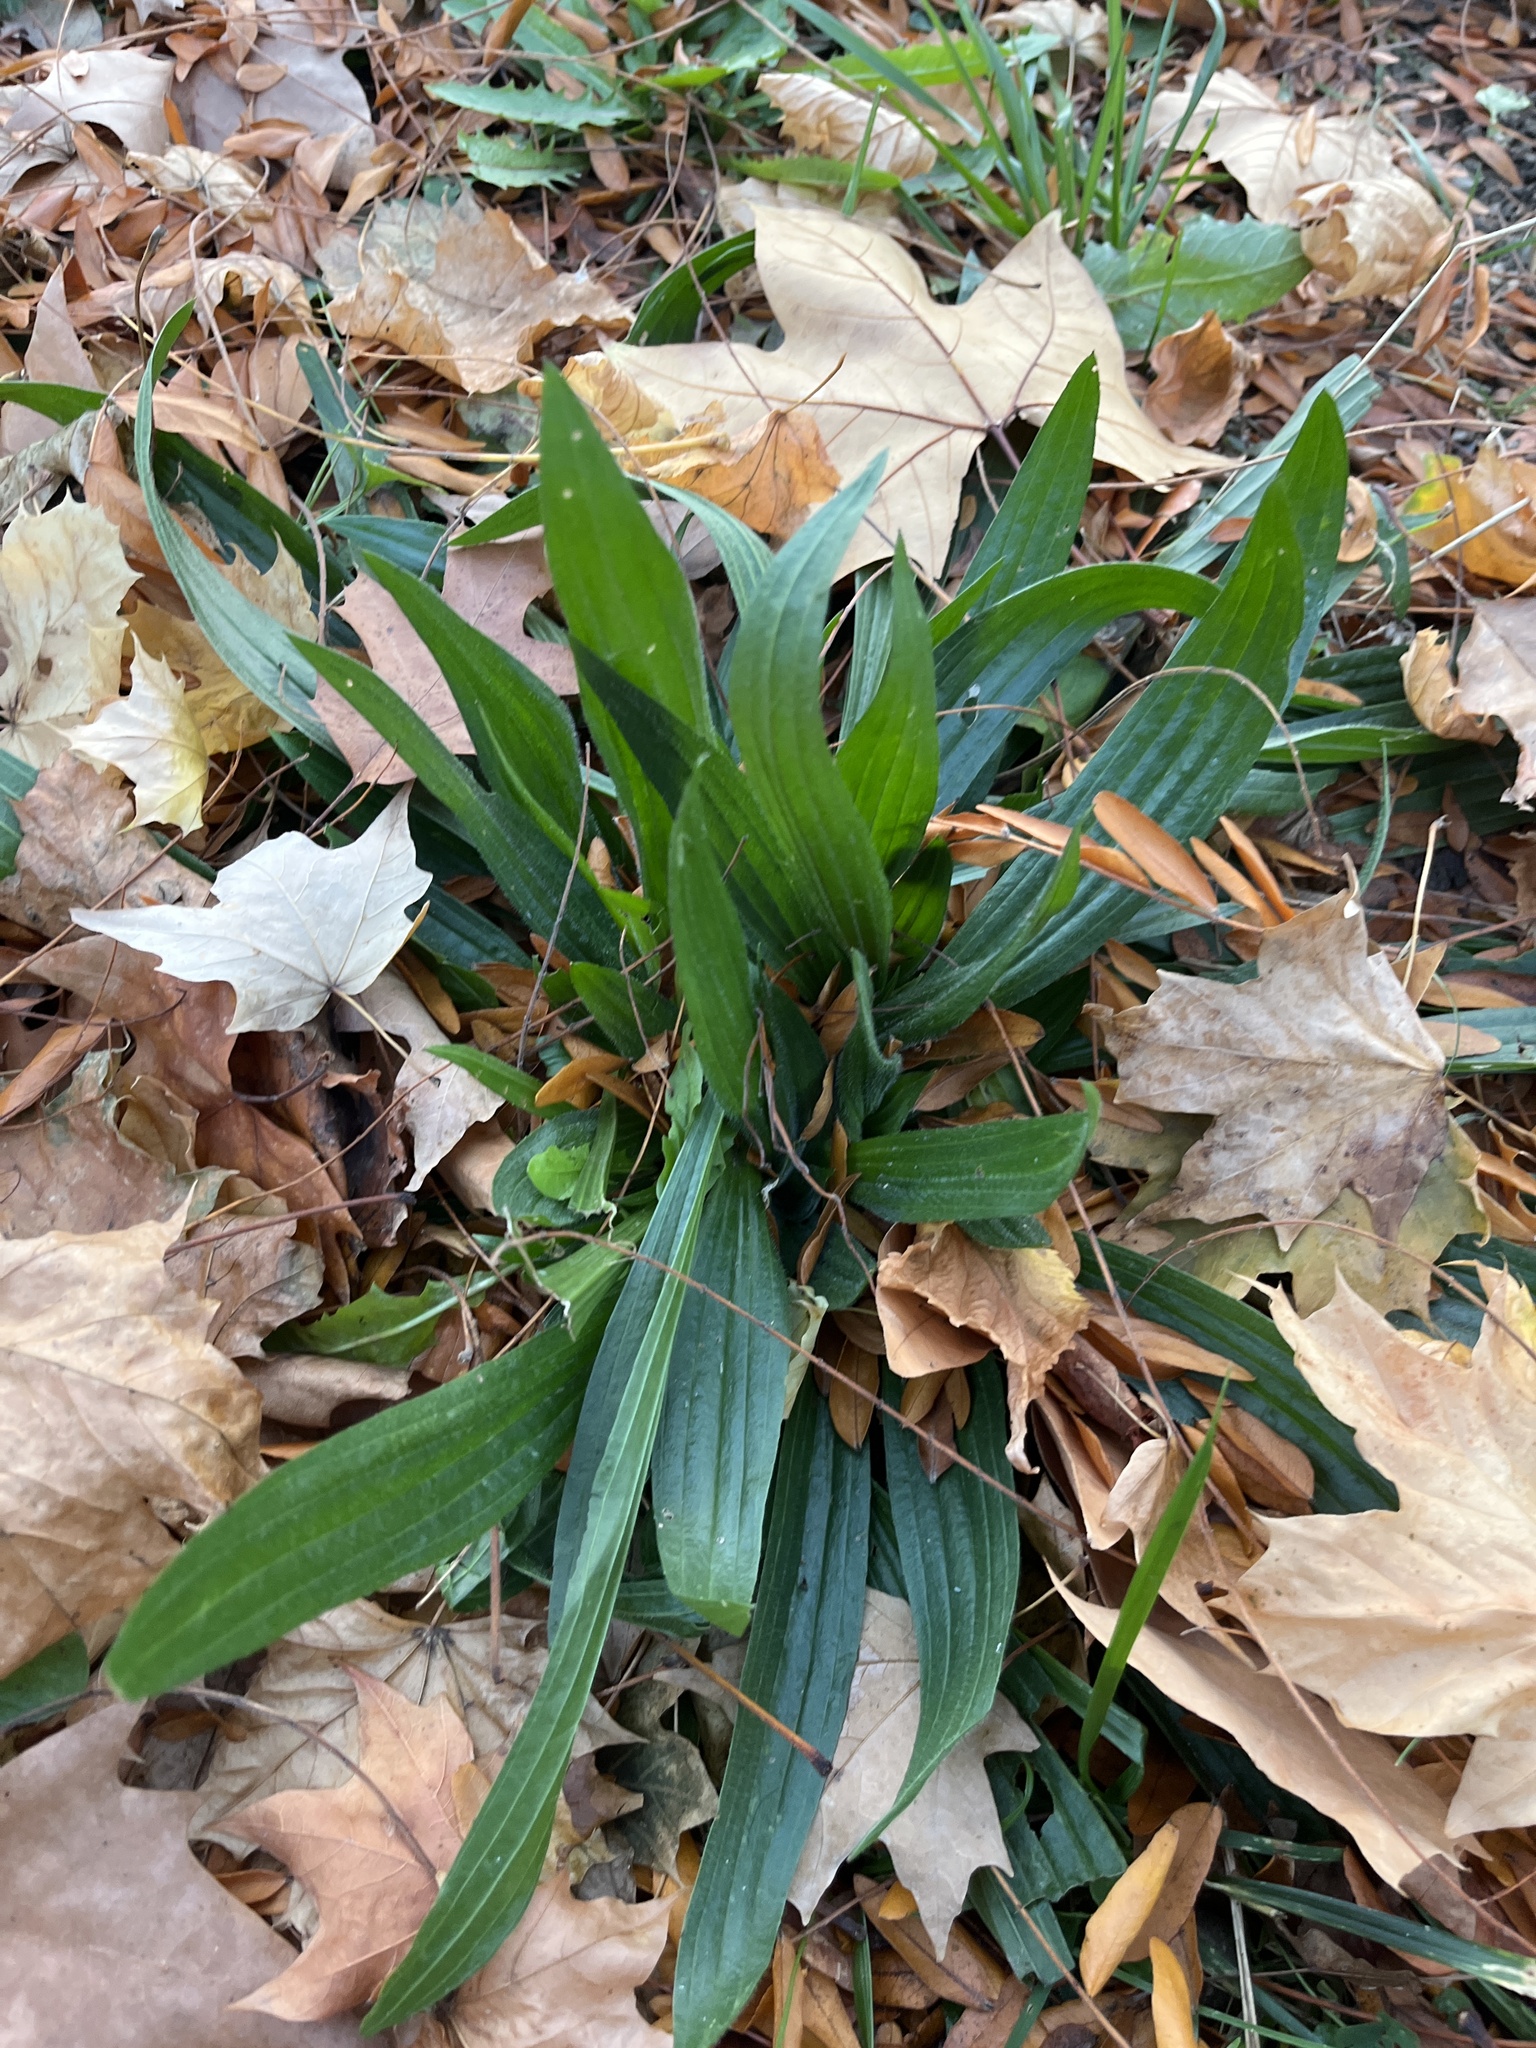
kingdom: Plantae
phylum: Tracheophyta
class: Magnoliopsida
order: Lamiales
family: Plantaginaceae
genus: Plantago
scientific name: Plantago lanceolata
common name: Ribwort plantain
